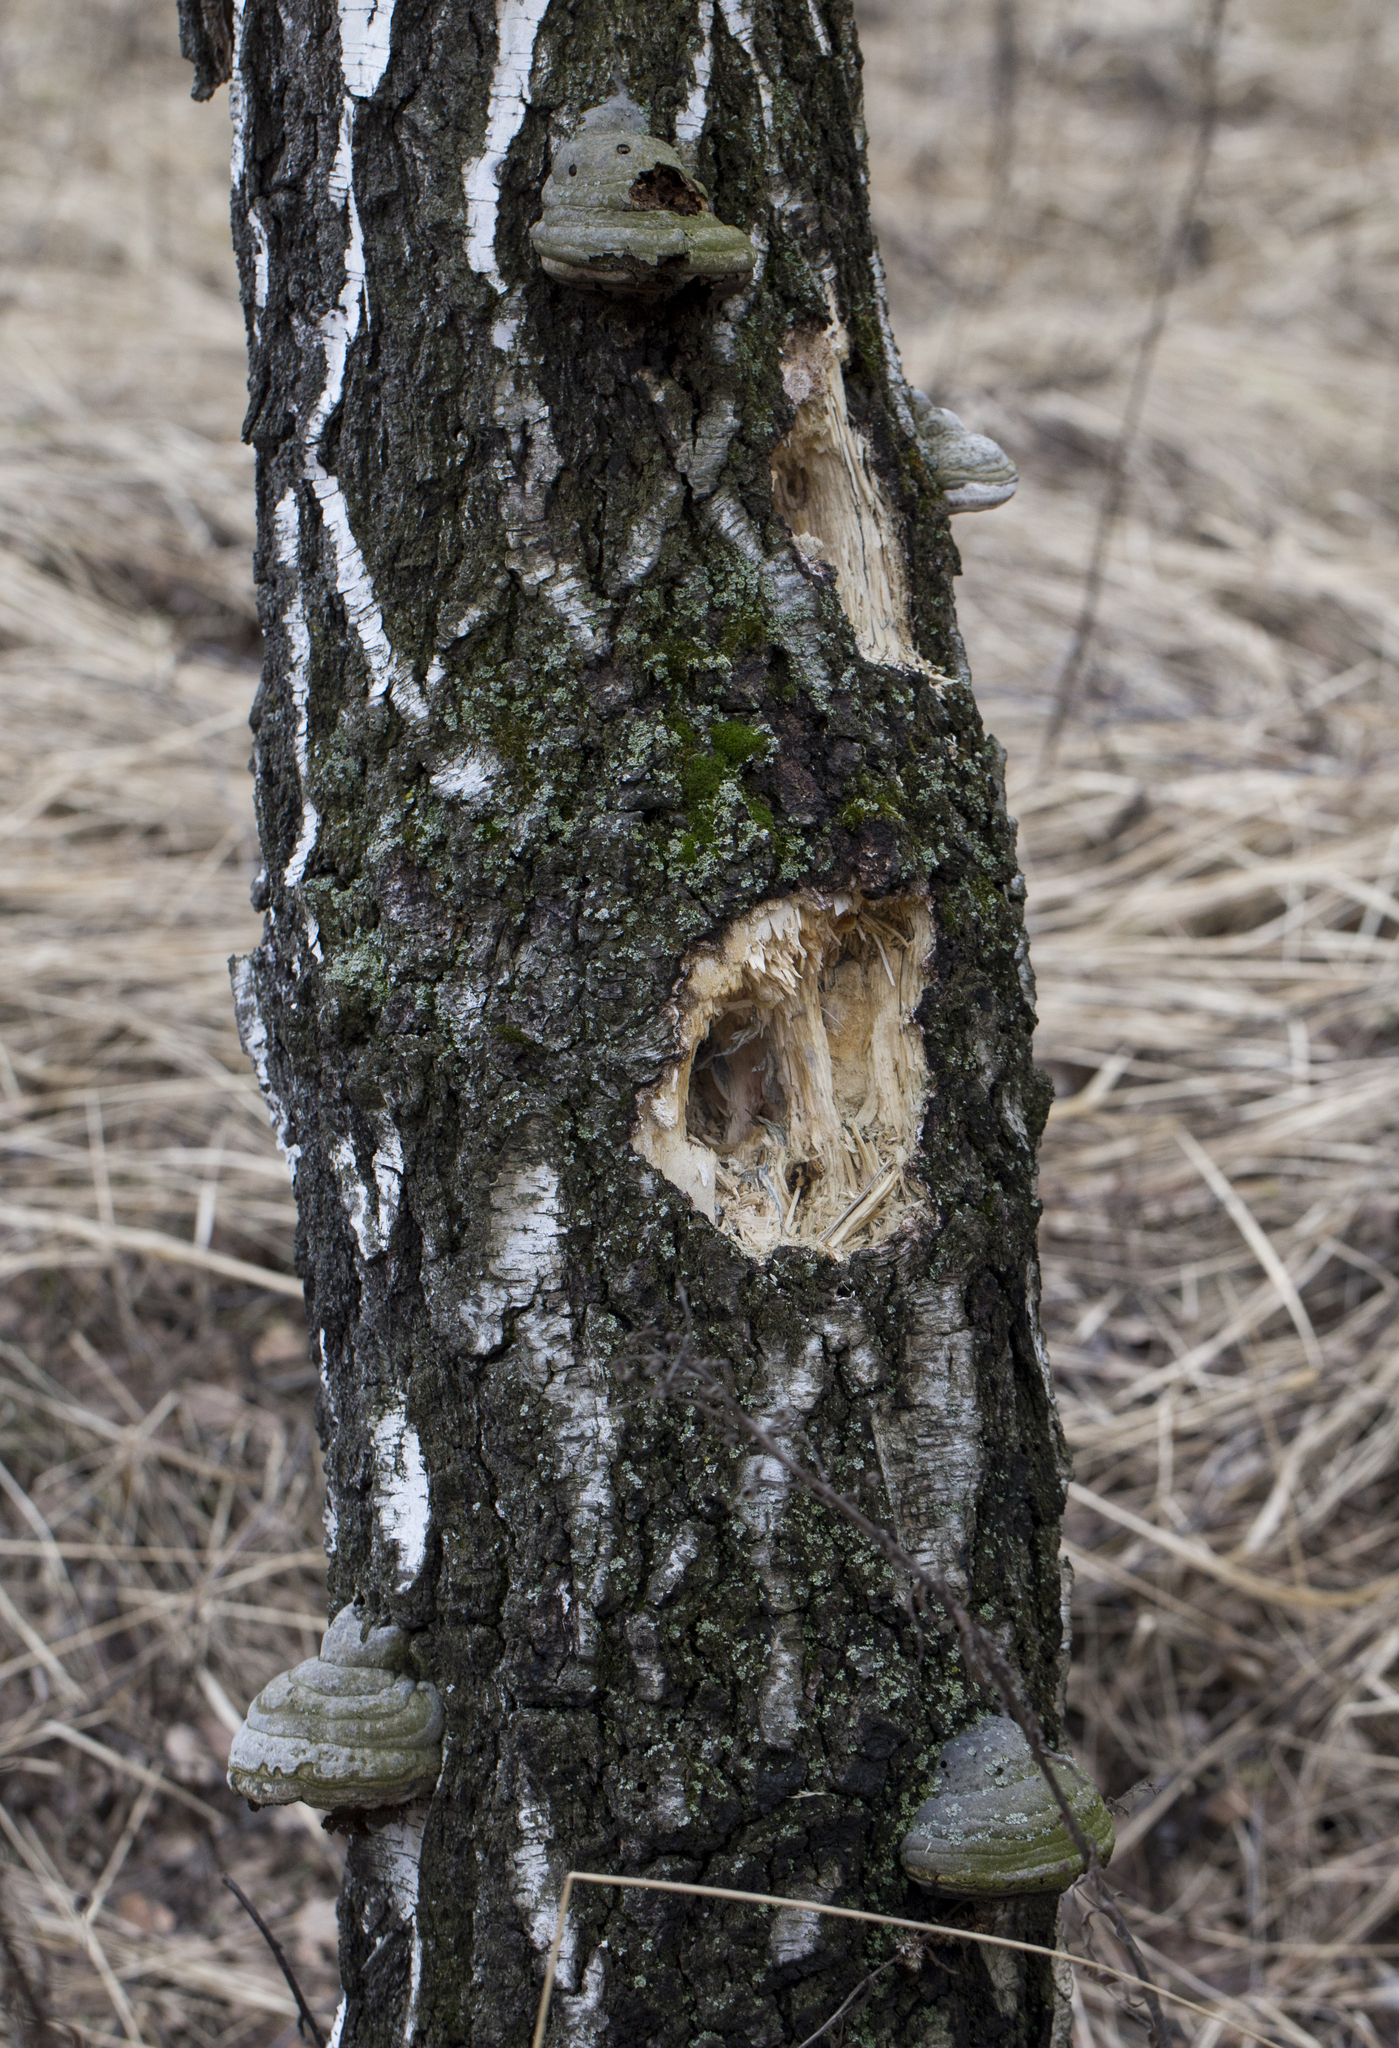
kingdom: Fungi
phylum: Basidiomycota
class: Agaricomycetes
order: Polyporales
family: Polyporaceae
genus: Fomes
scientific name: Fomes fomentarius
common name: Hoof fungus
